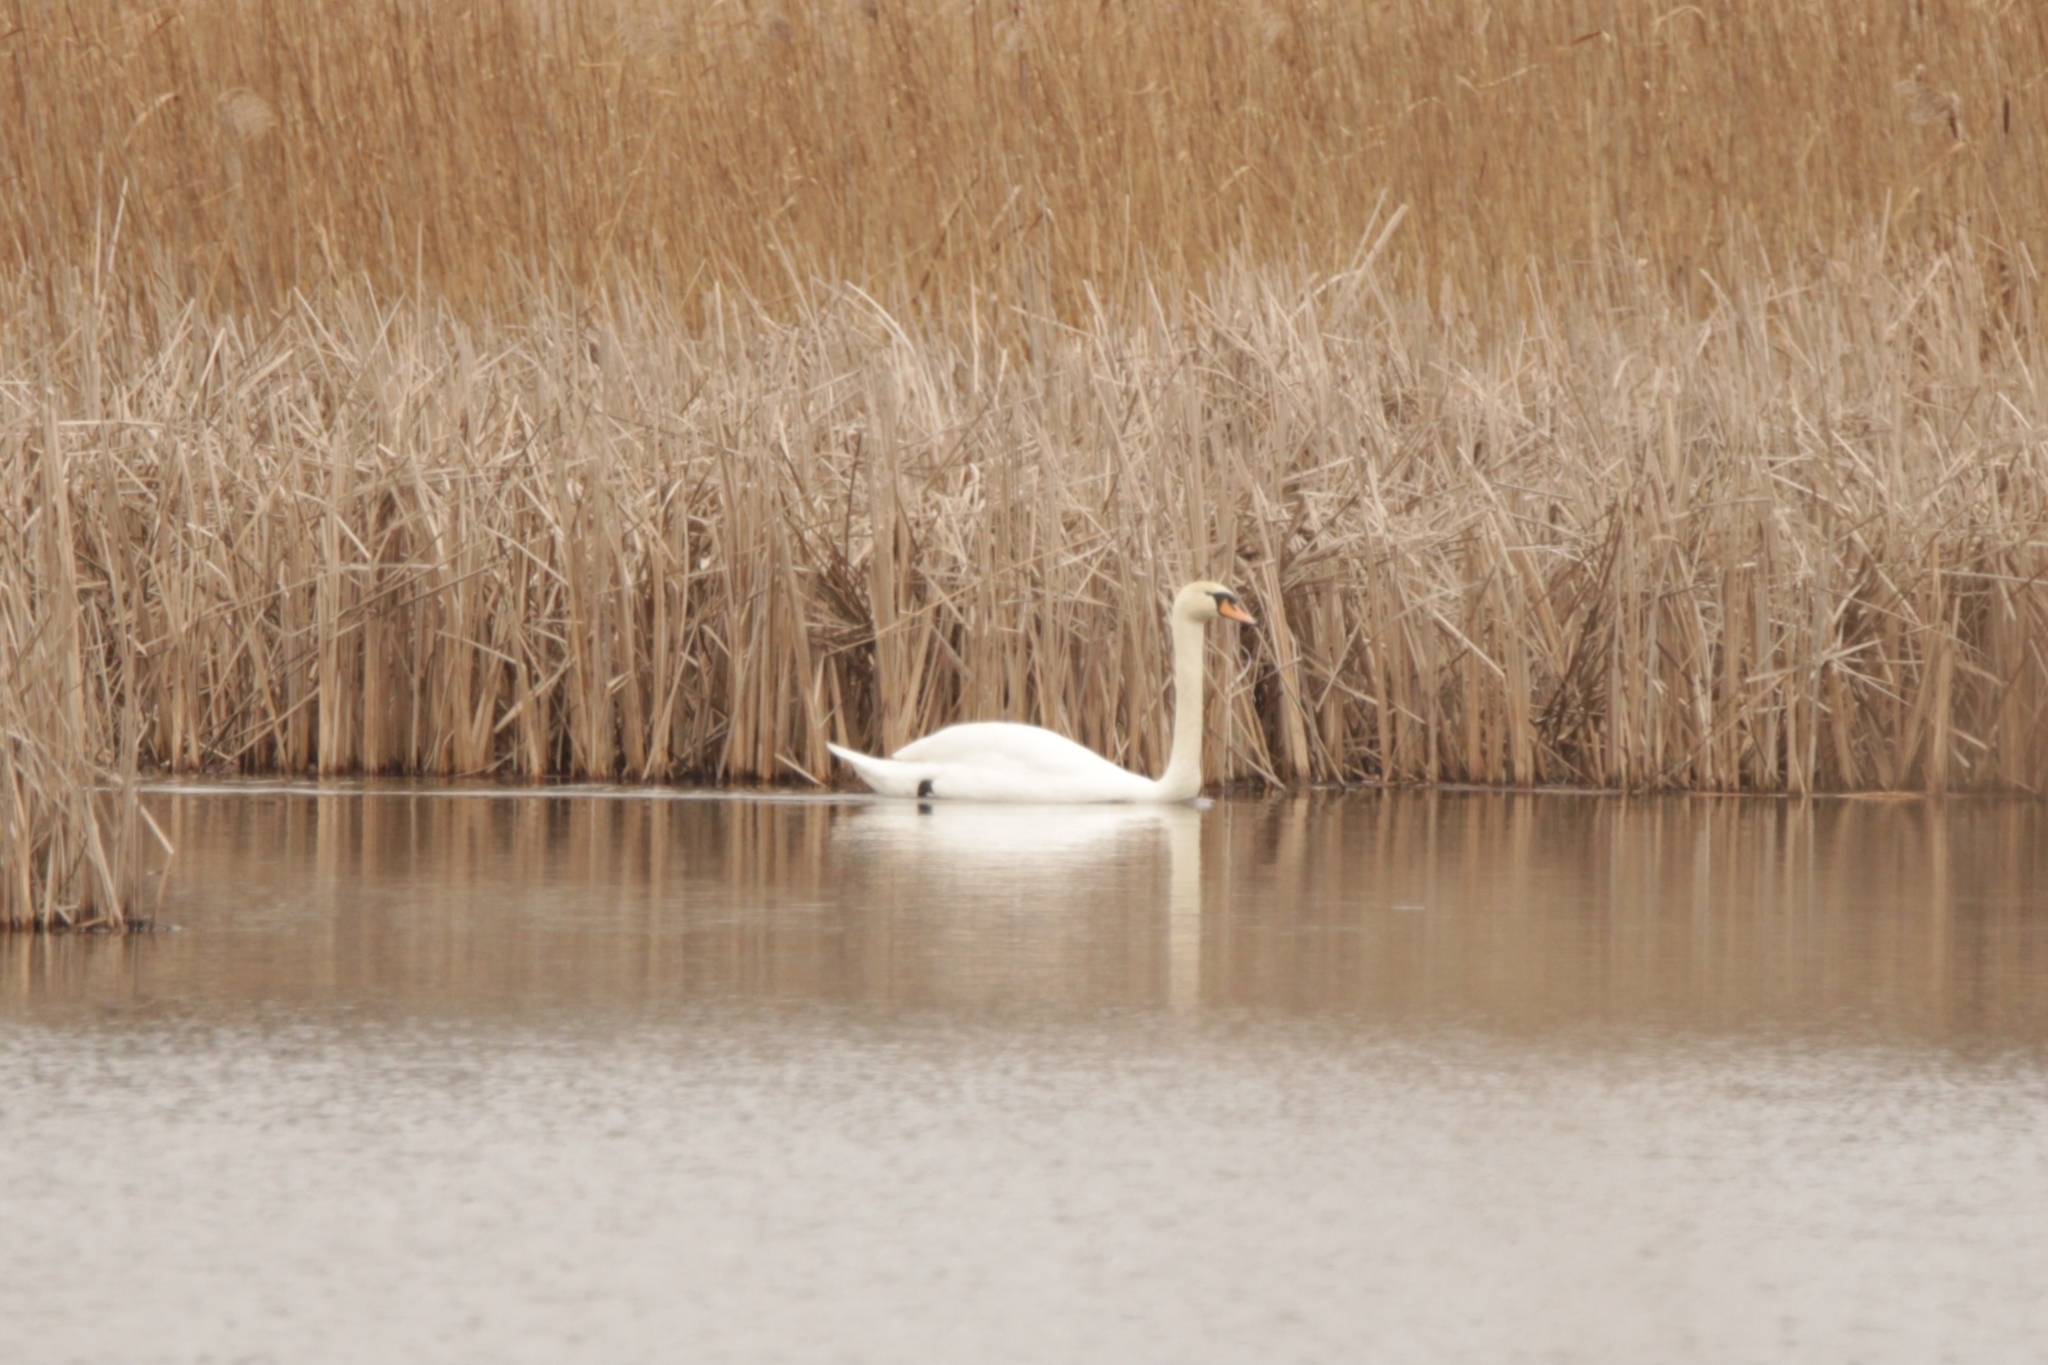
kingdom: Animalia
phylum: Chordata
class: Aves
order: Anseriformes
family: Anatidae
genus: Cygnus
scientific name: Cygnus olor
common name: Mute swan
